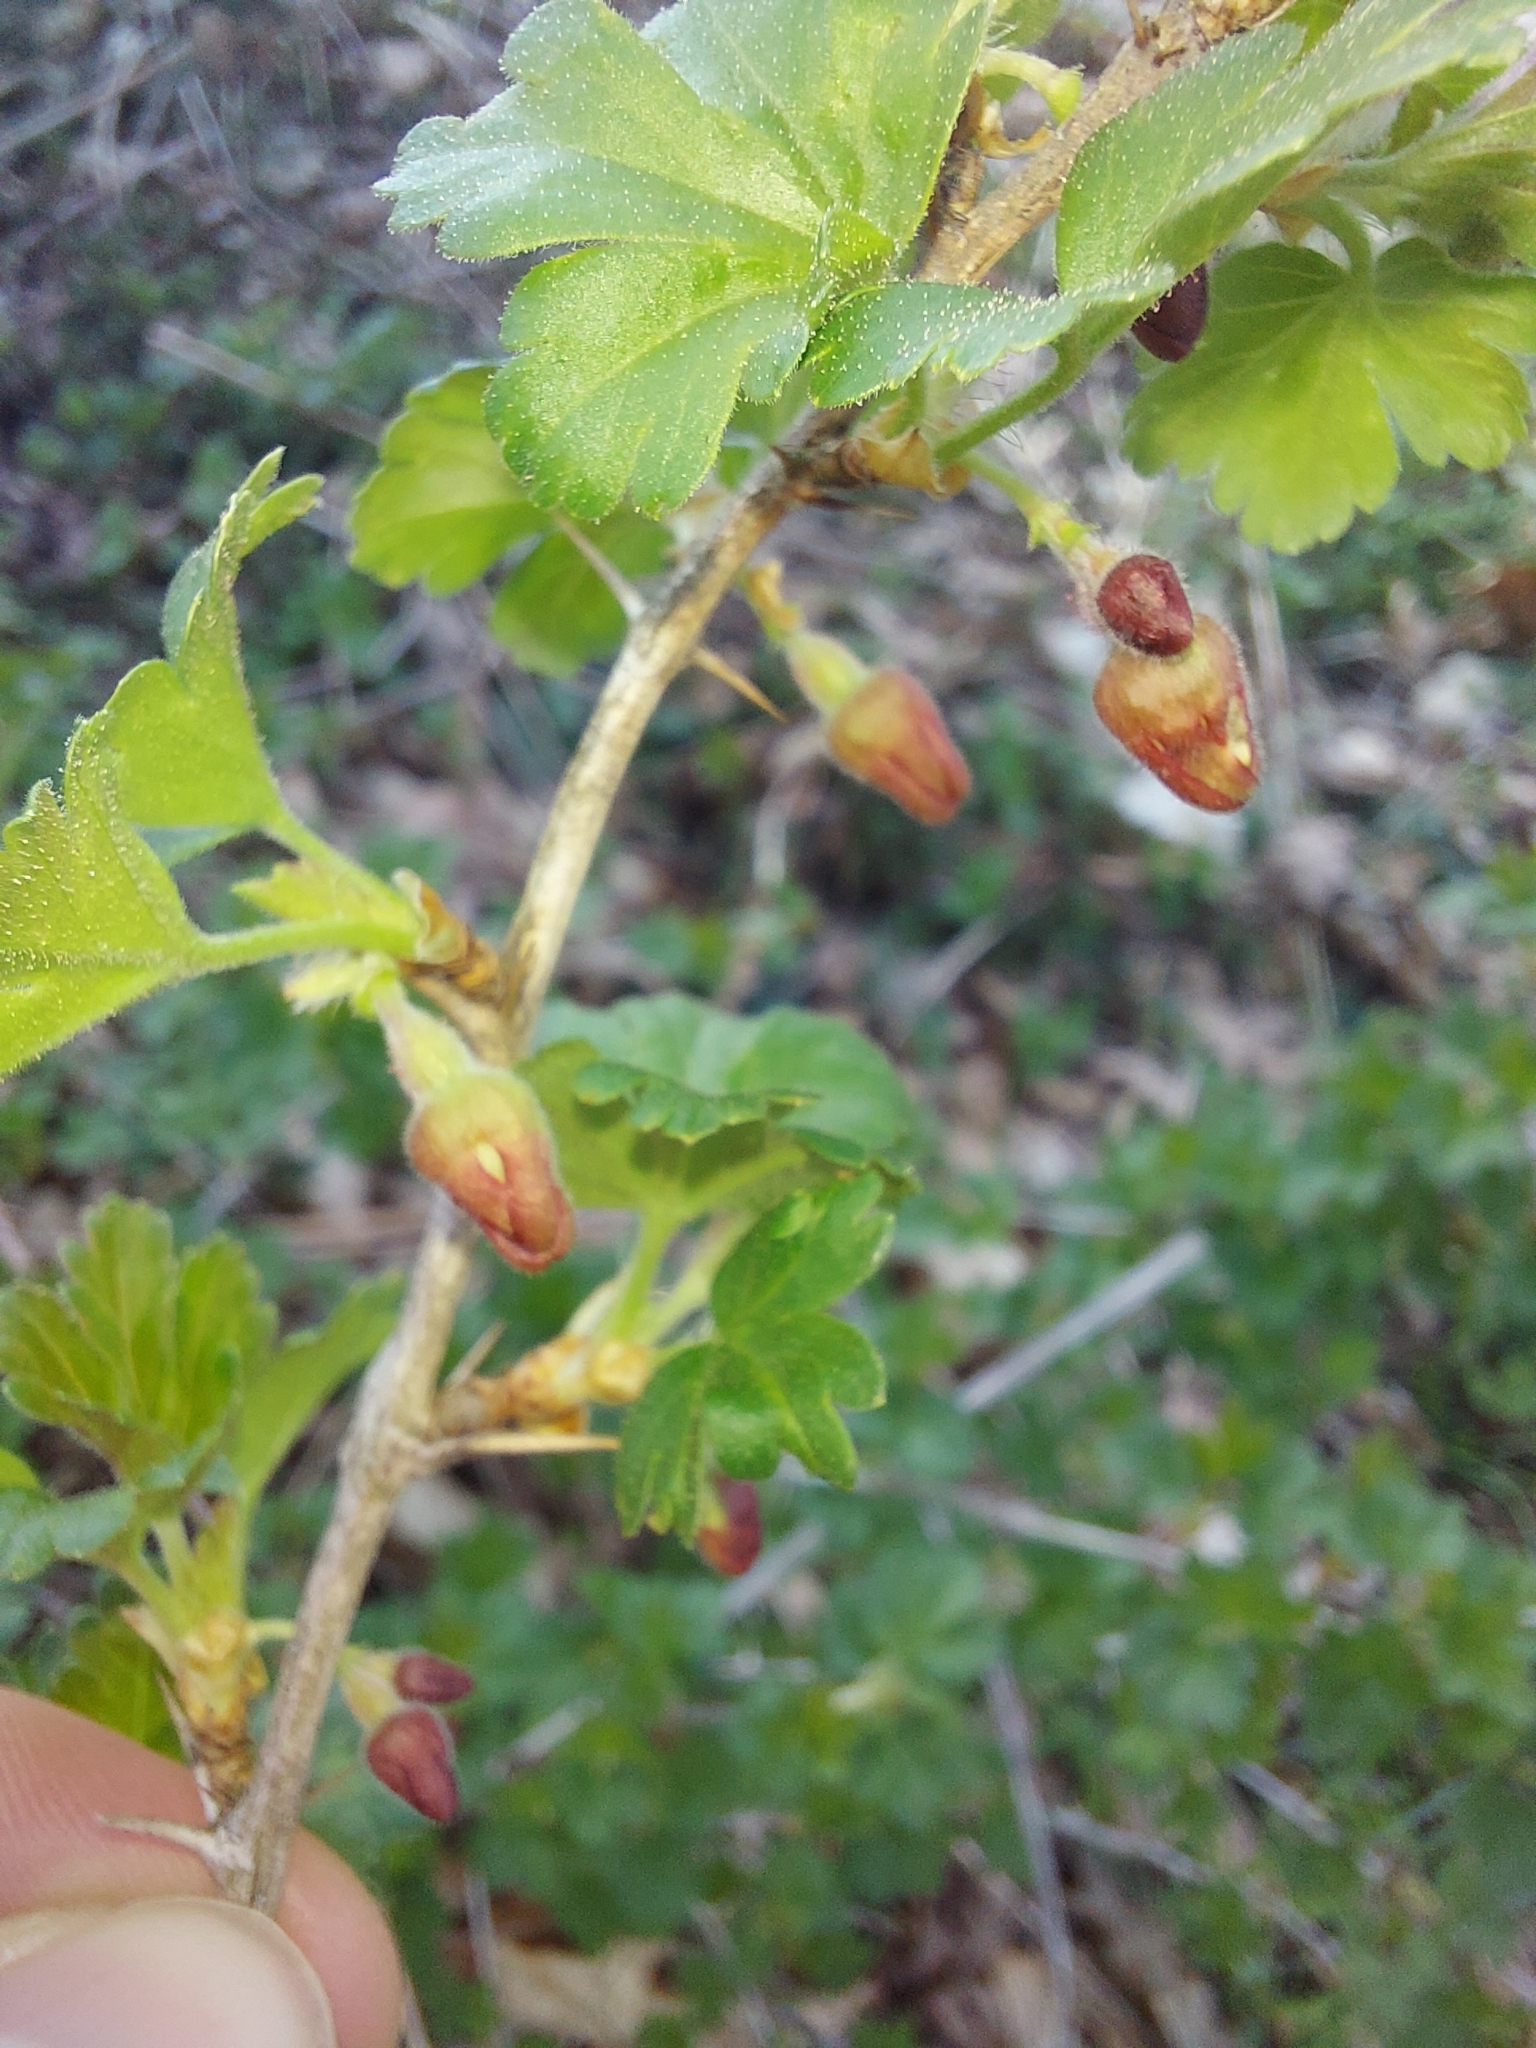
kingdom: Plantae
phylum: Tracheophyta
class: Magnoliopsida
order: Saxifragales
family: Grossulariaceae
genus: Ribes
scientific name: Ribes uva-crispa
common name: Gooseberry
